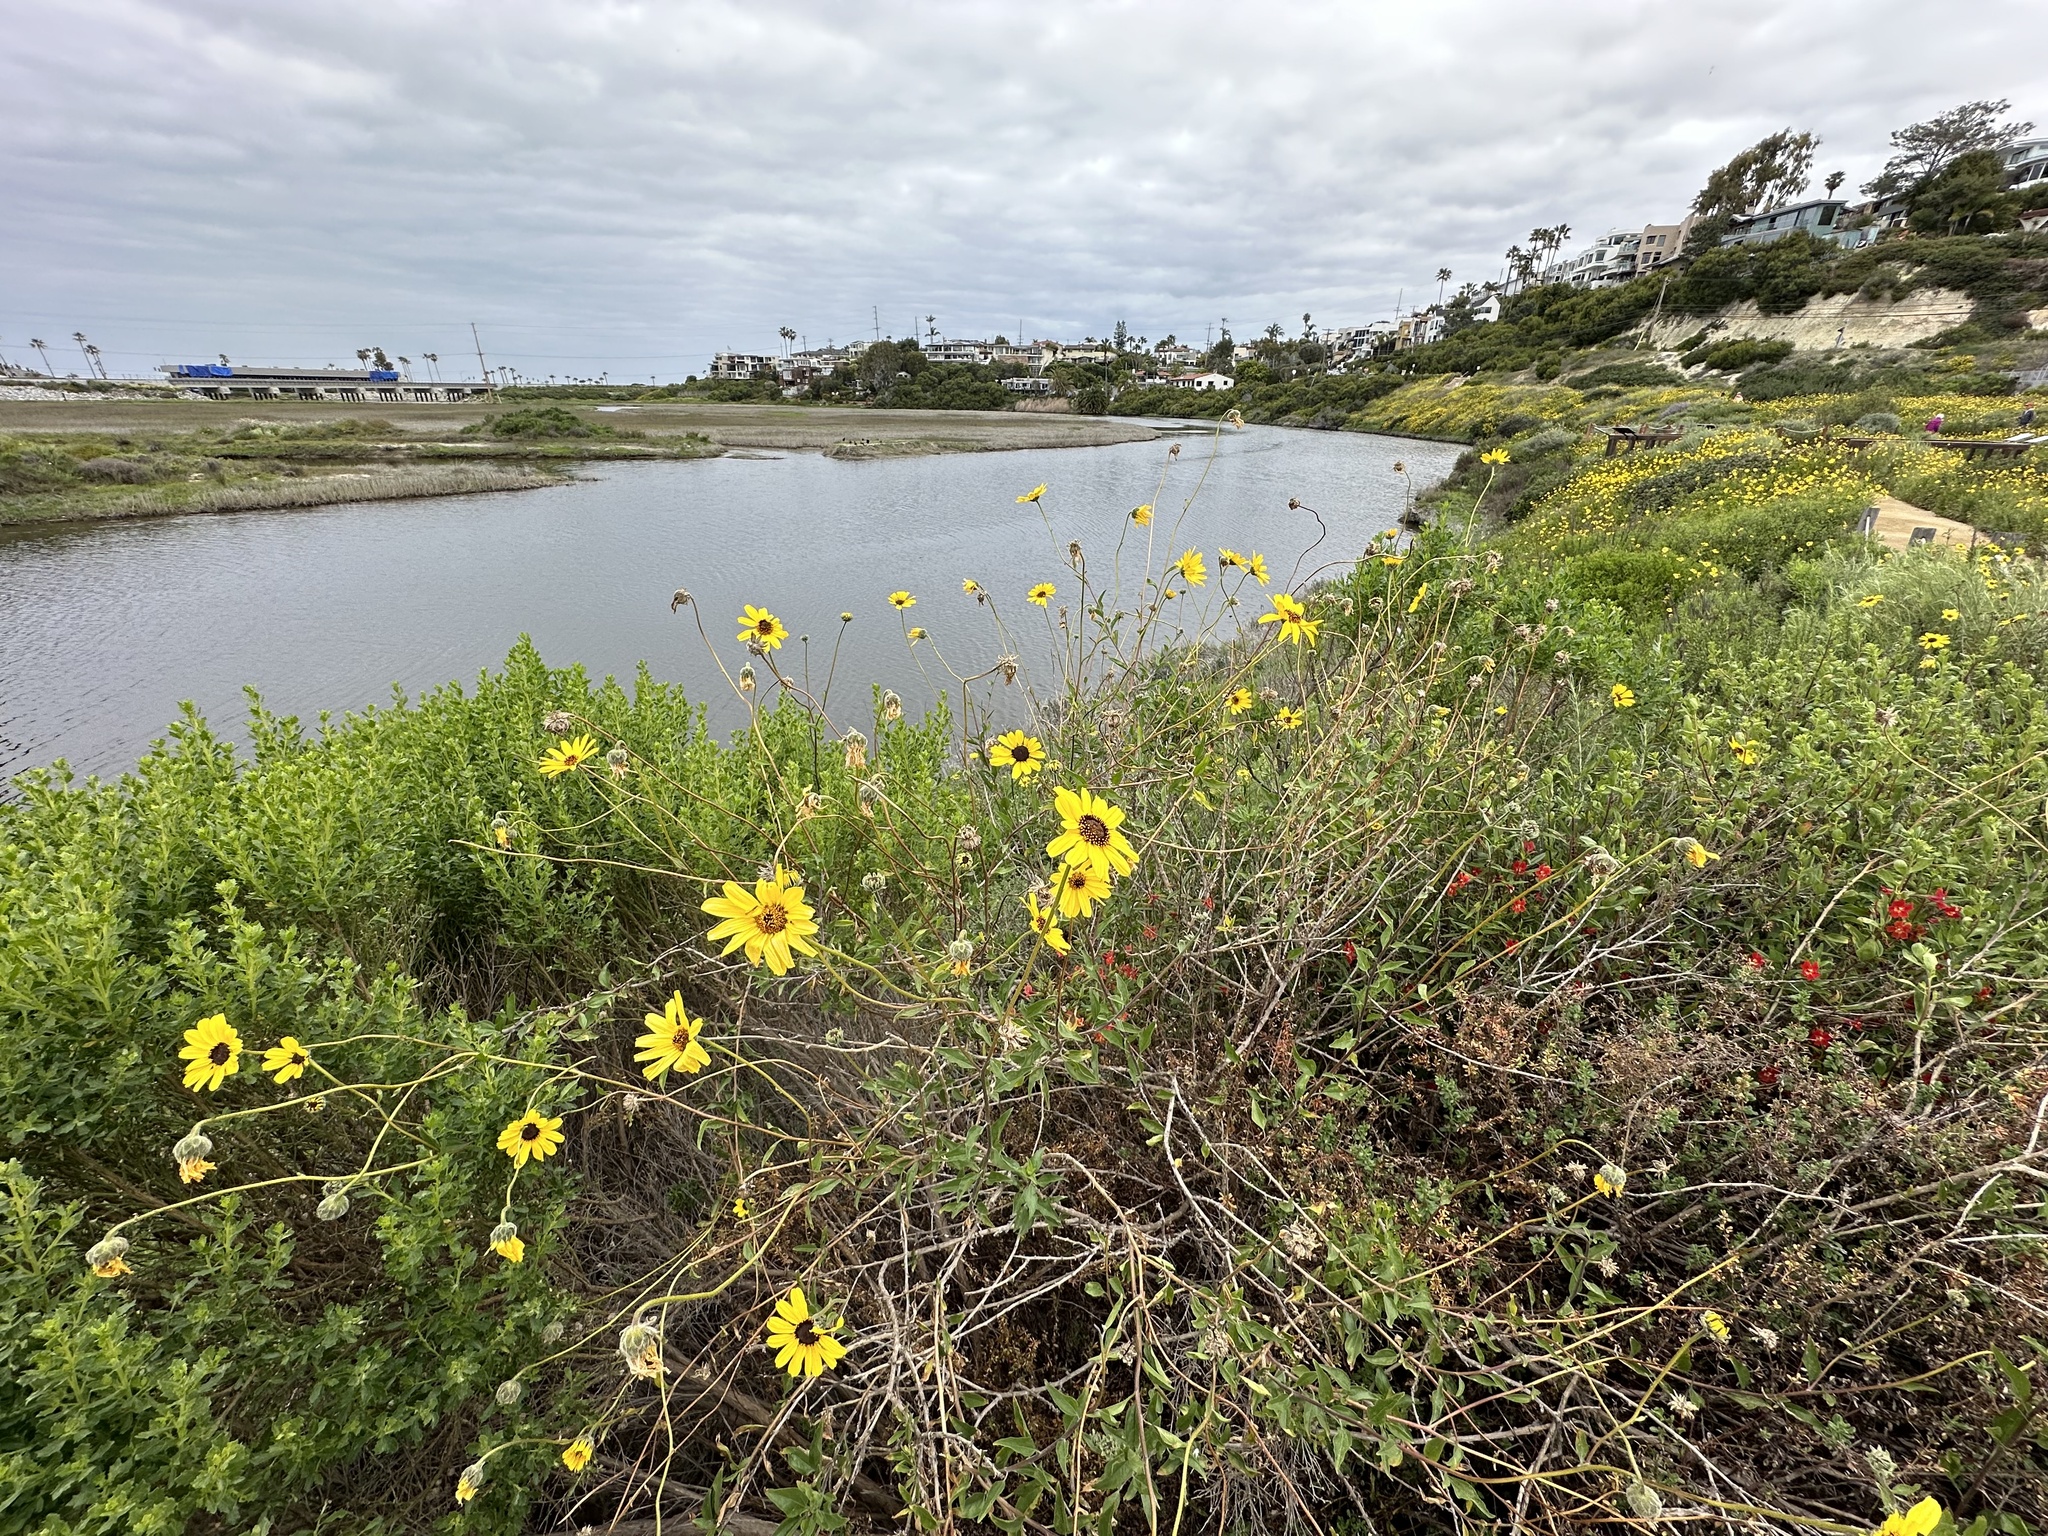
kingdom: Plantae
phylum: Tracheophyta
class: Magnoliopsida
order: Asterales
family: Asteraceae
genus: Encelia
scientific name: Encelia californica
